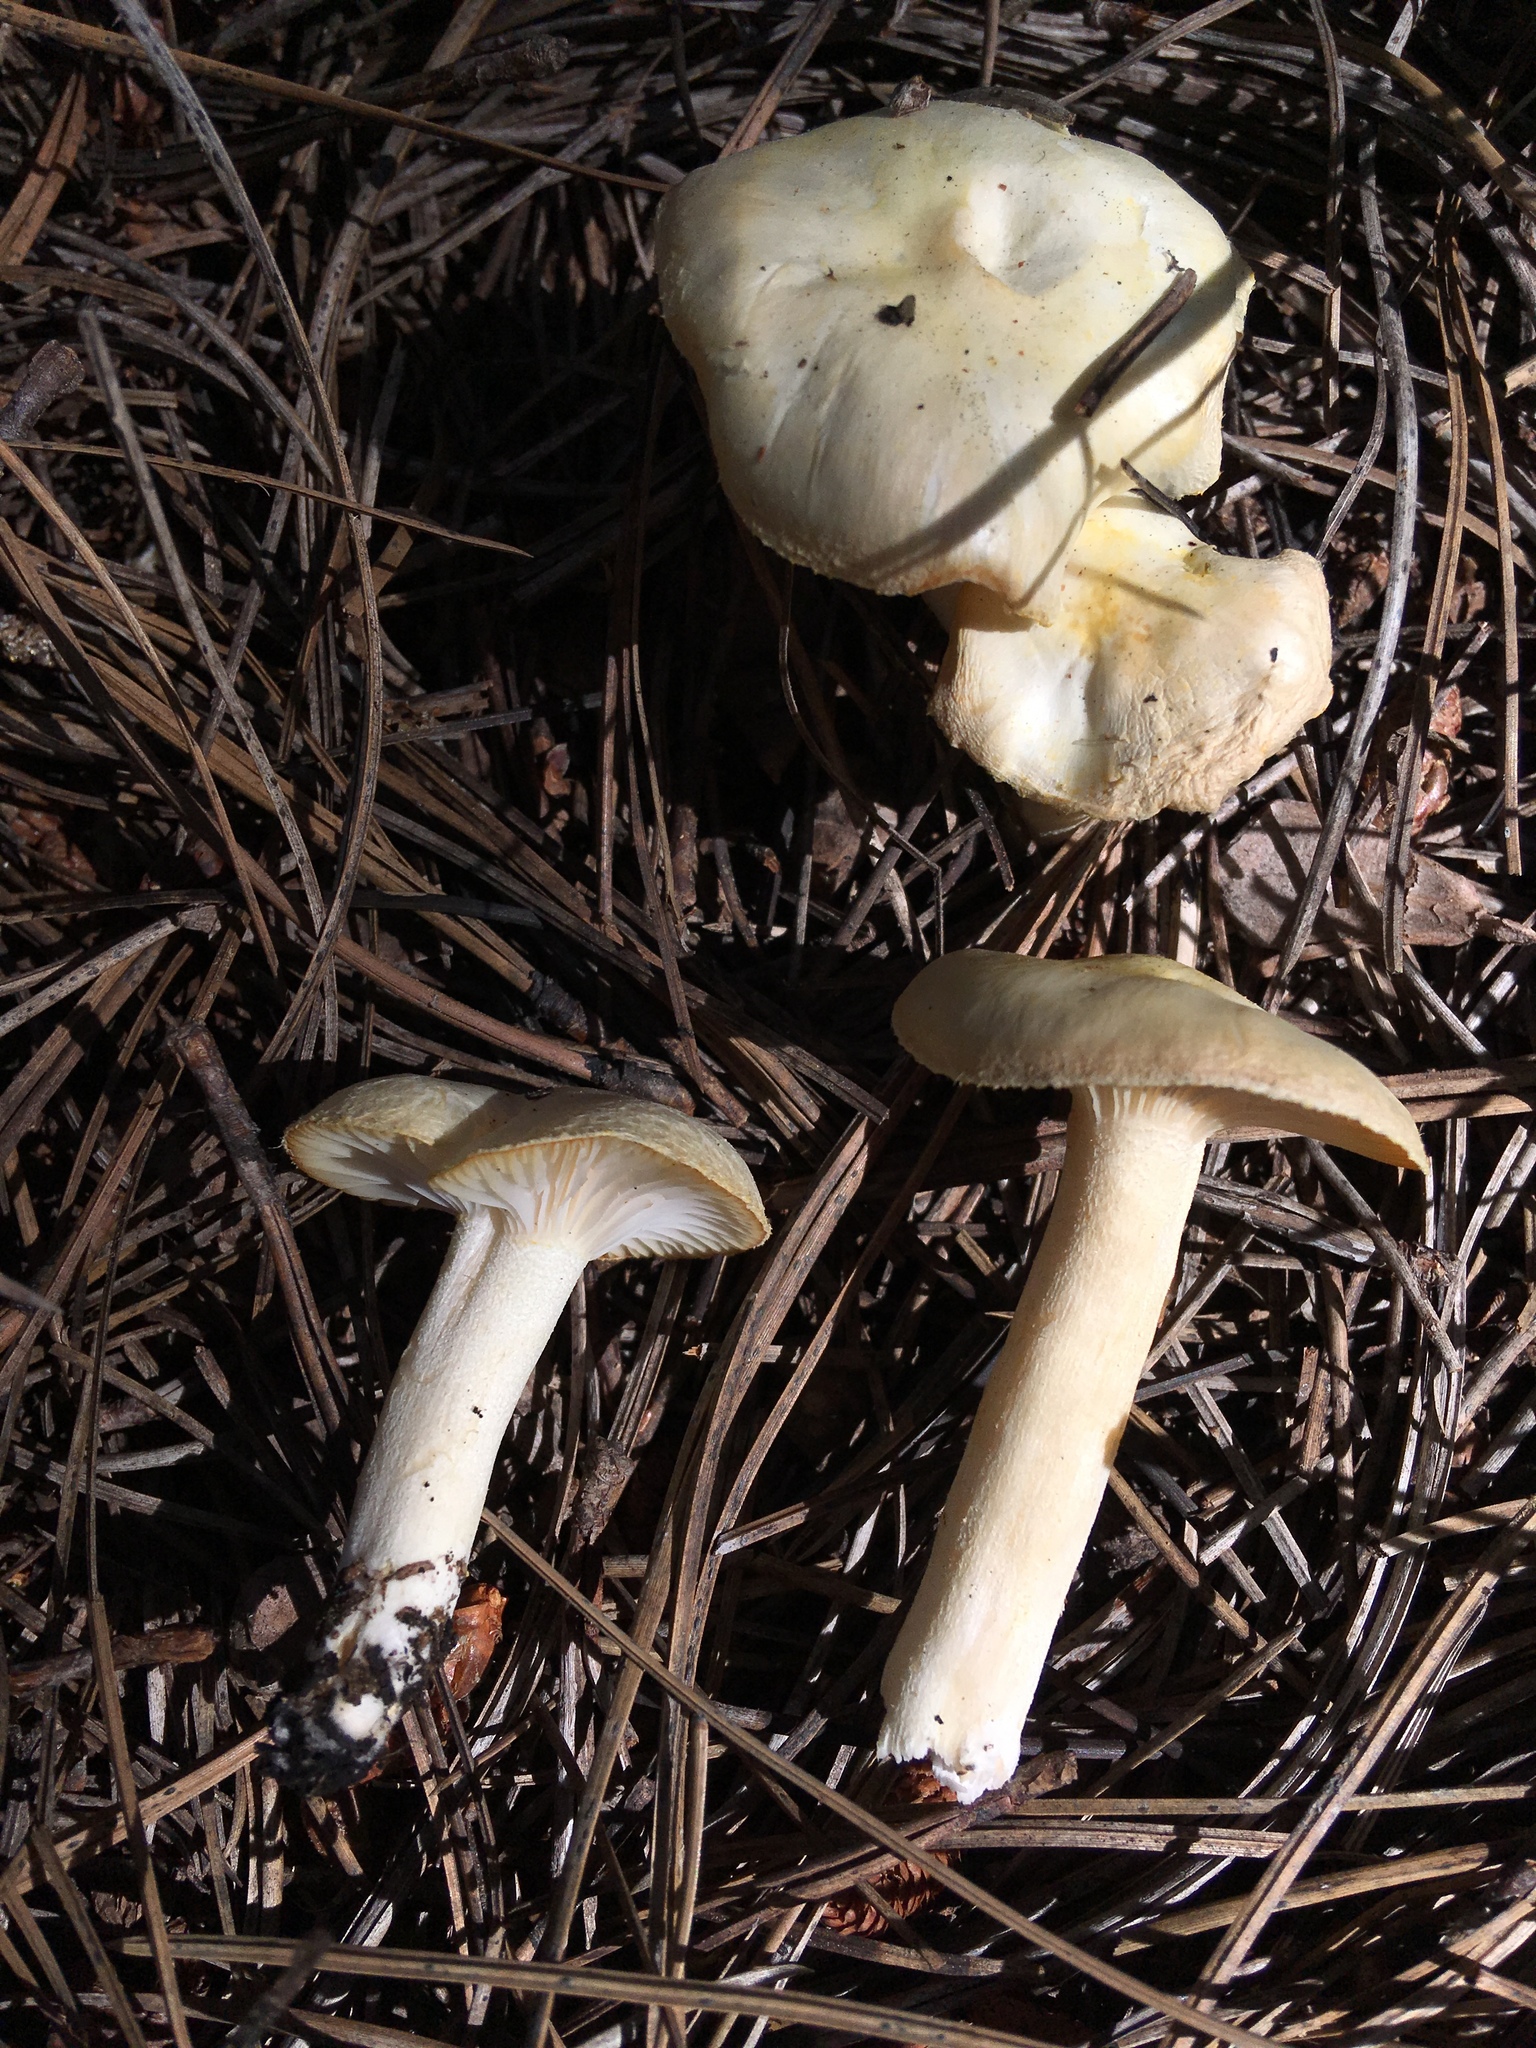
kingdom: Fungi
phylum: Basidiomycota
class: Agaricomycetes
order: Agaricales
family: Hygrophoraceae
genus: Hygrophorus
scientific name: Hygrophorus chrysodon
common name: Gold flecked woodwax
